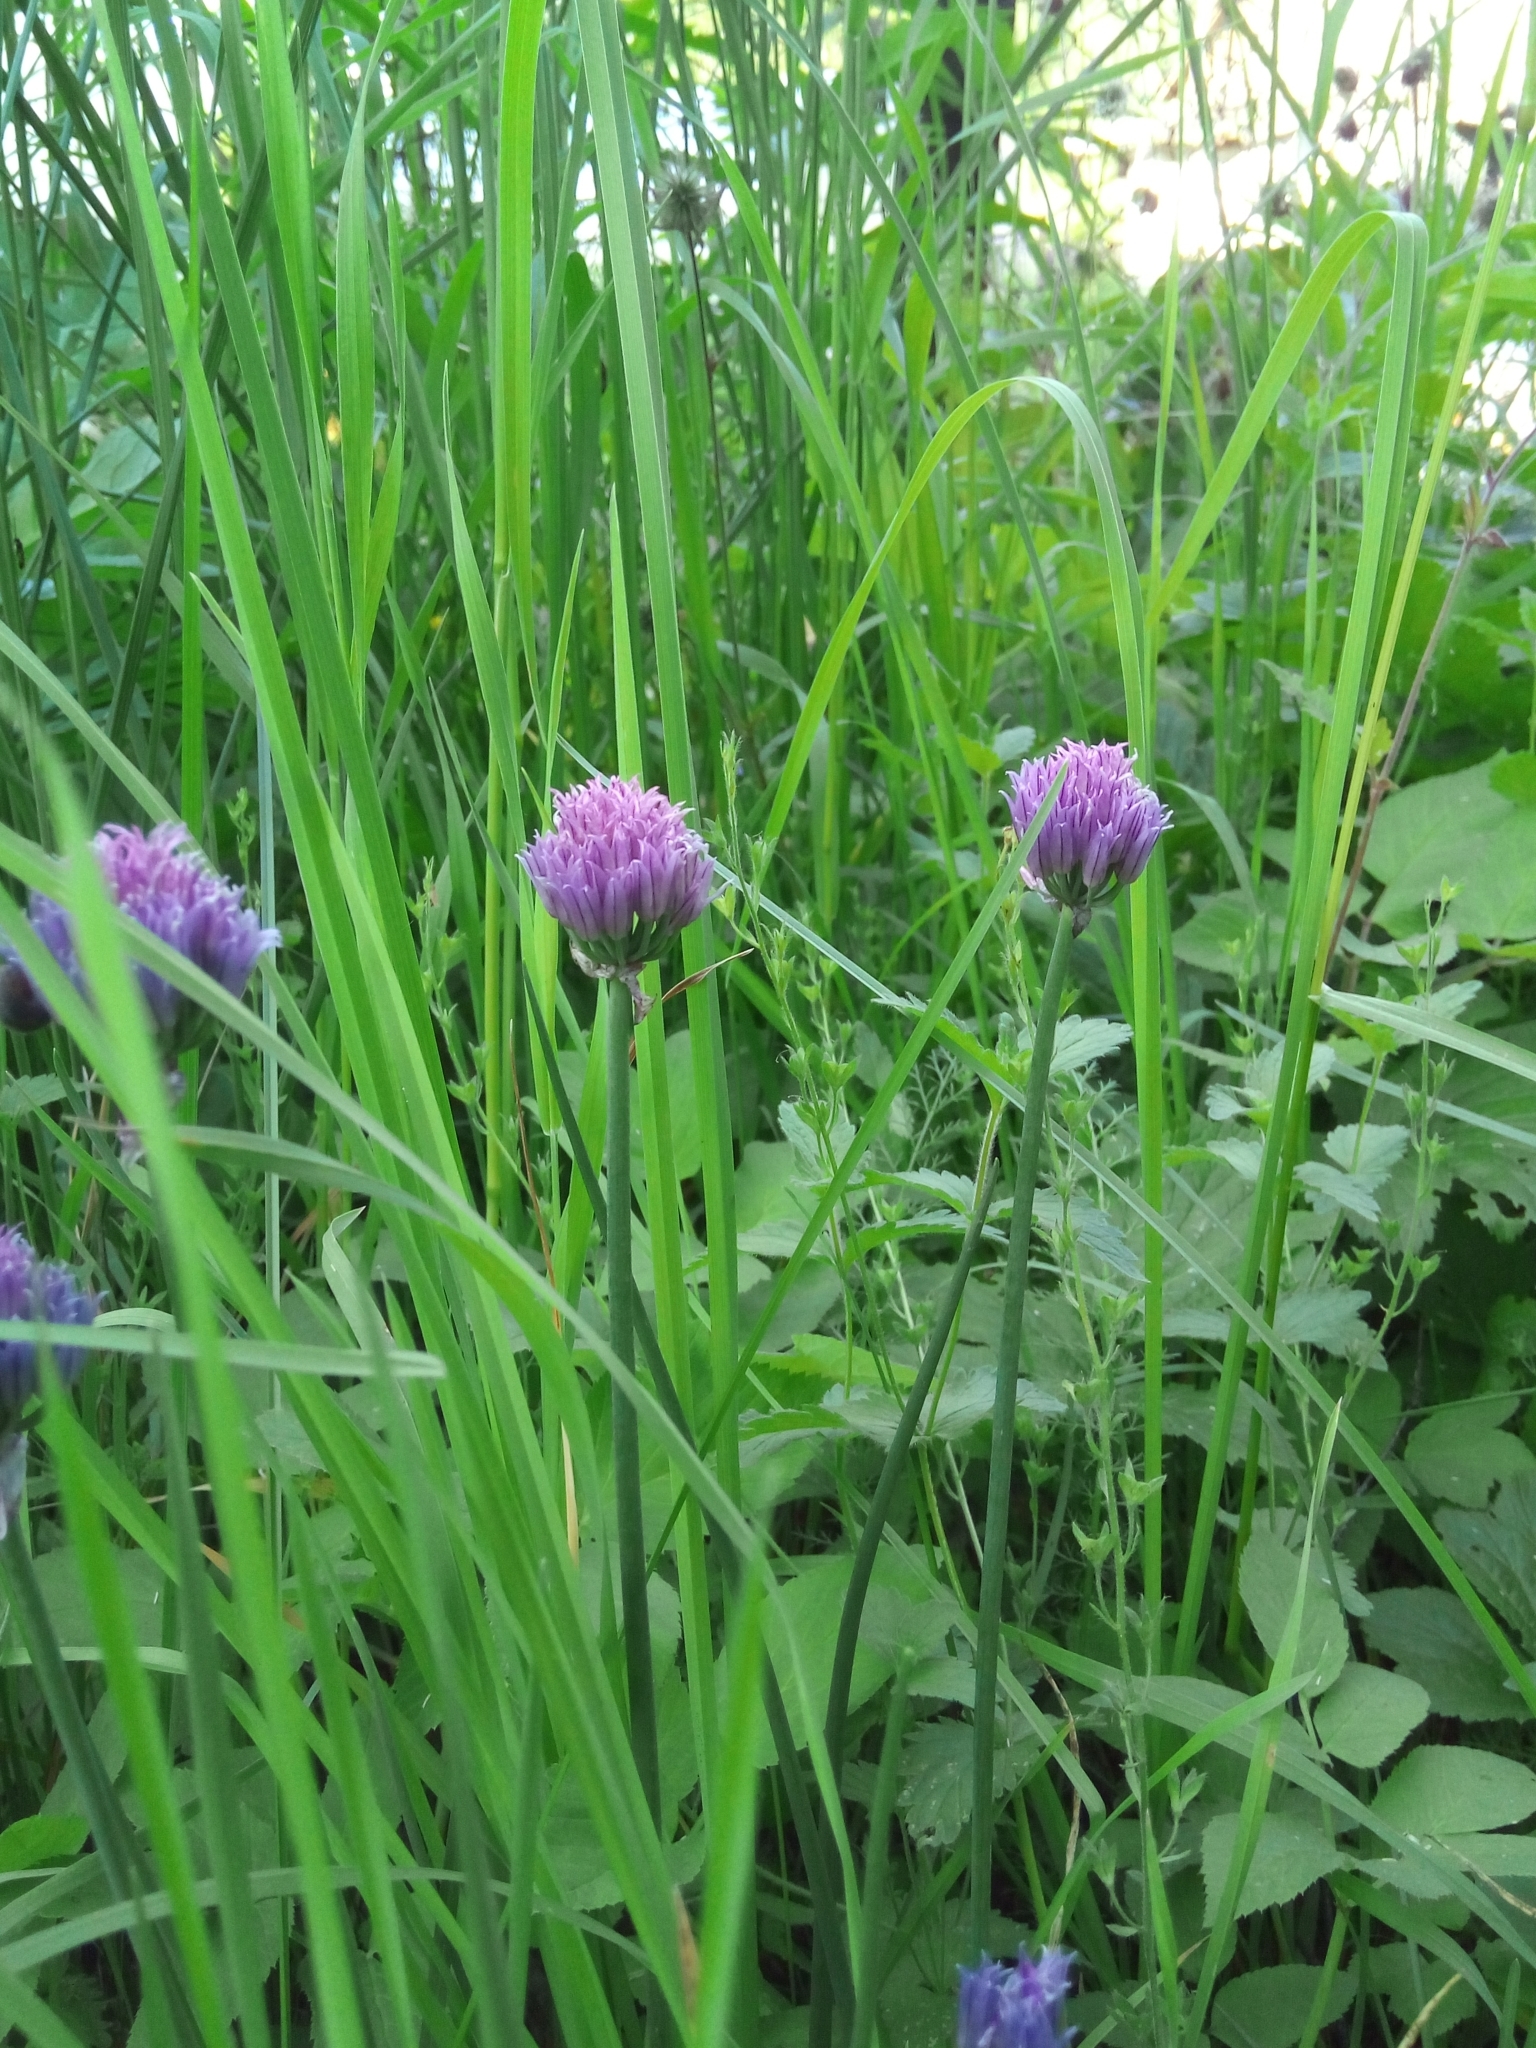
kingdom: Plantae
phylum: Tracheophyta
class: Liliopsida
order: Asparagales
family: Amaryllidaceae
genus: Allium
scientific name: Allium schoenoprasum
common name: Chives
